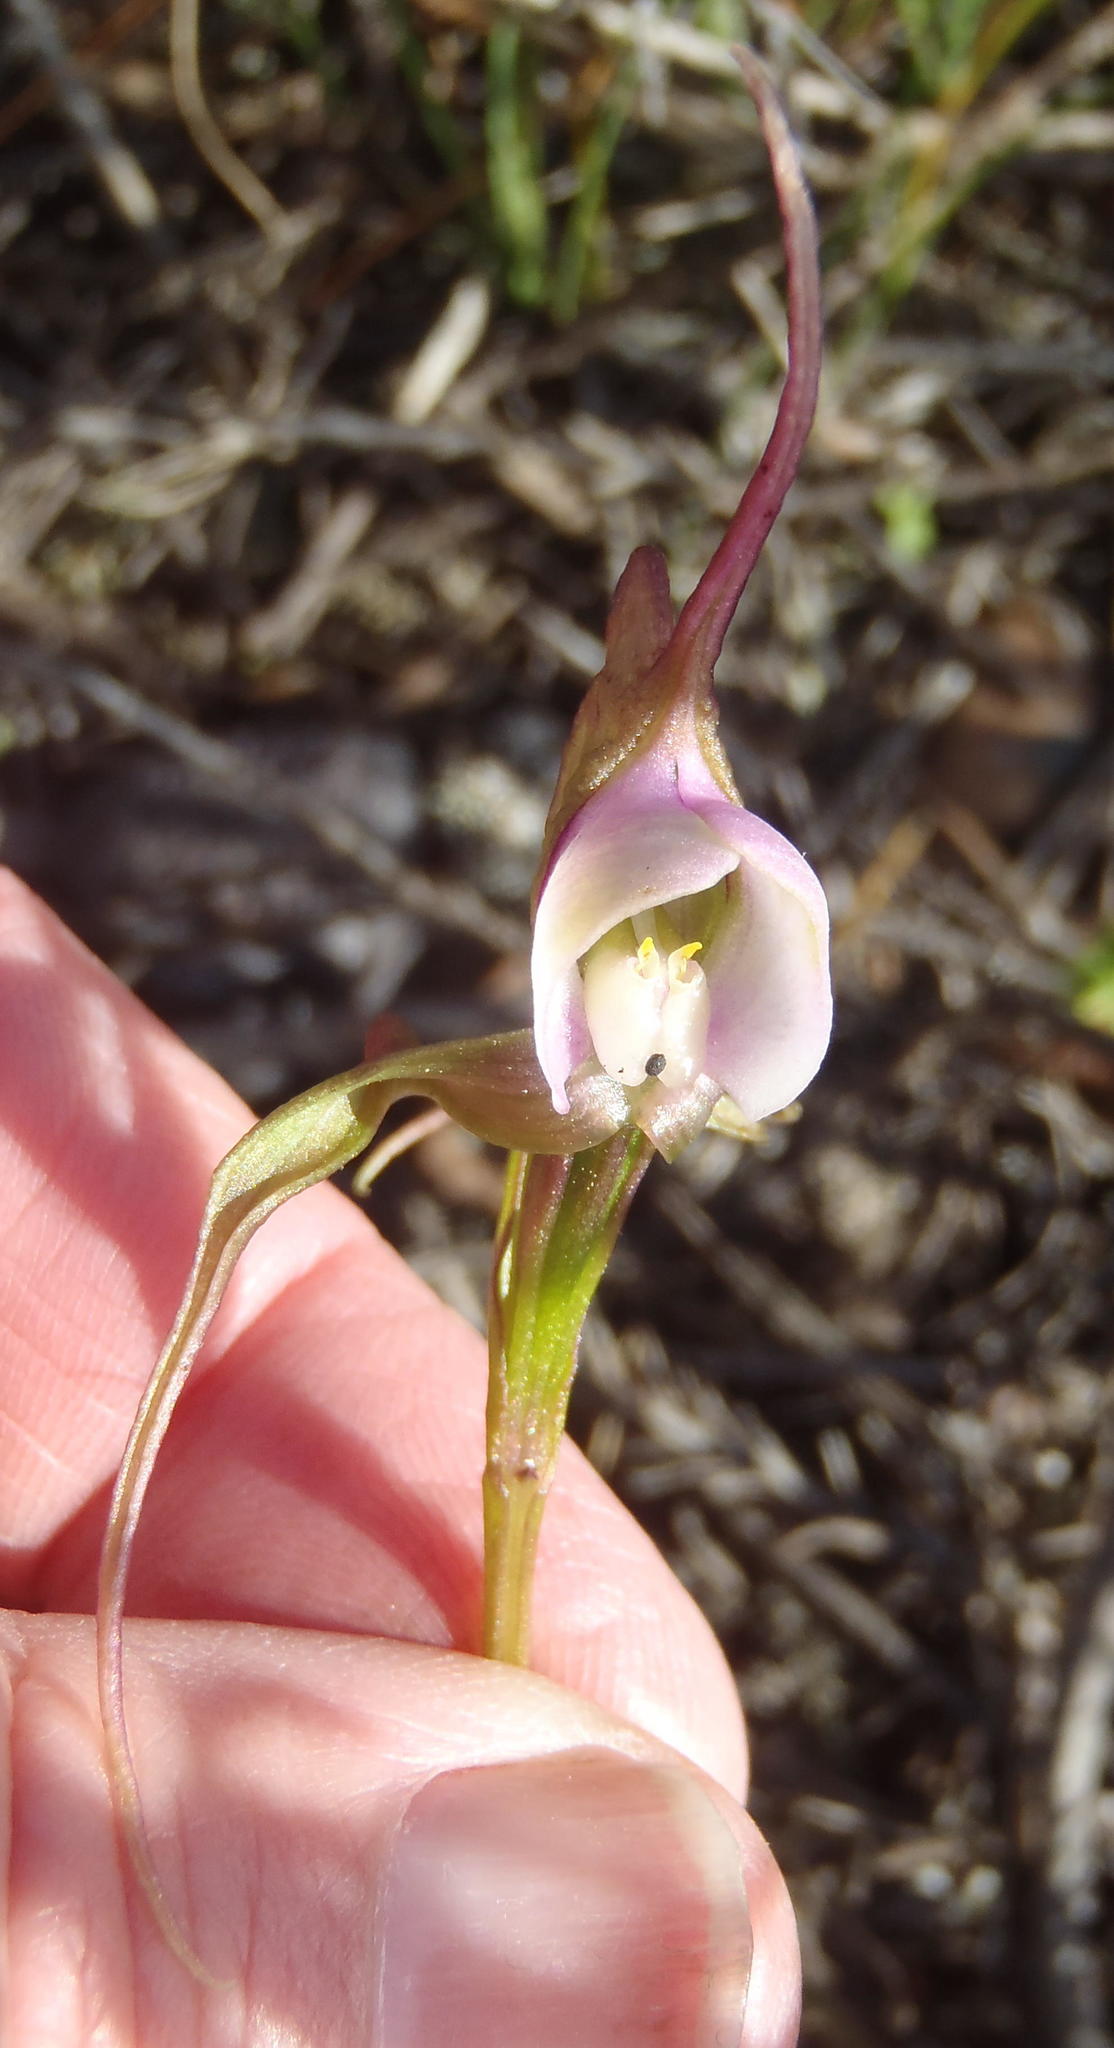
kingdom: Plantae
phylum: Tracheophyta
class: Liliopsida
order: Asparagales
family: Orchidaceae
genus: Disperis
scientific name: Disperis capensis
